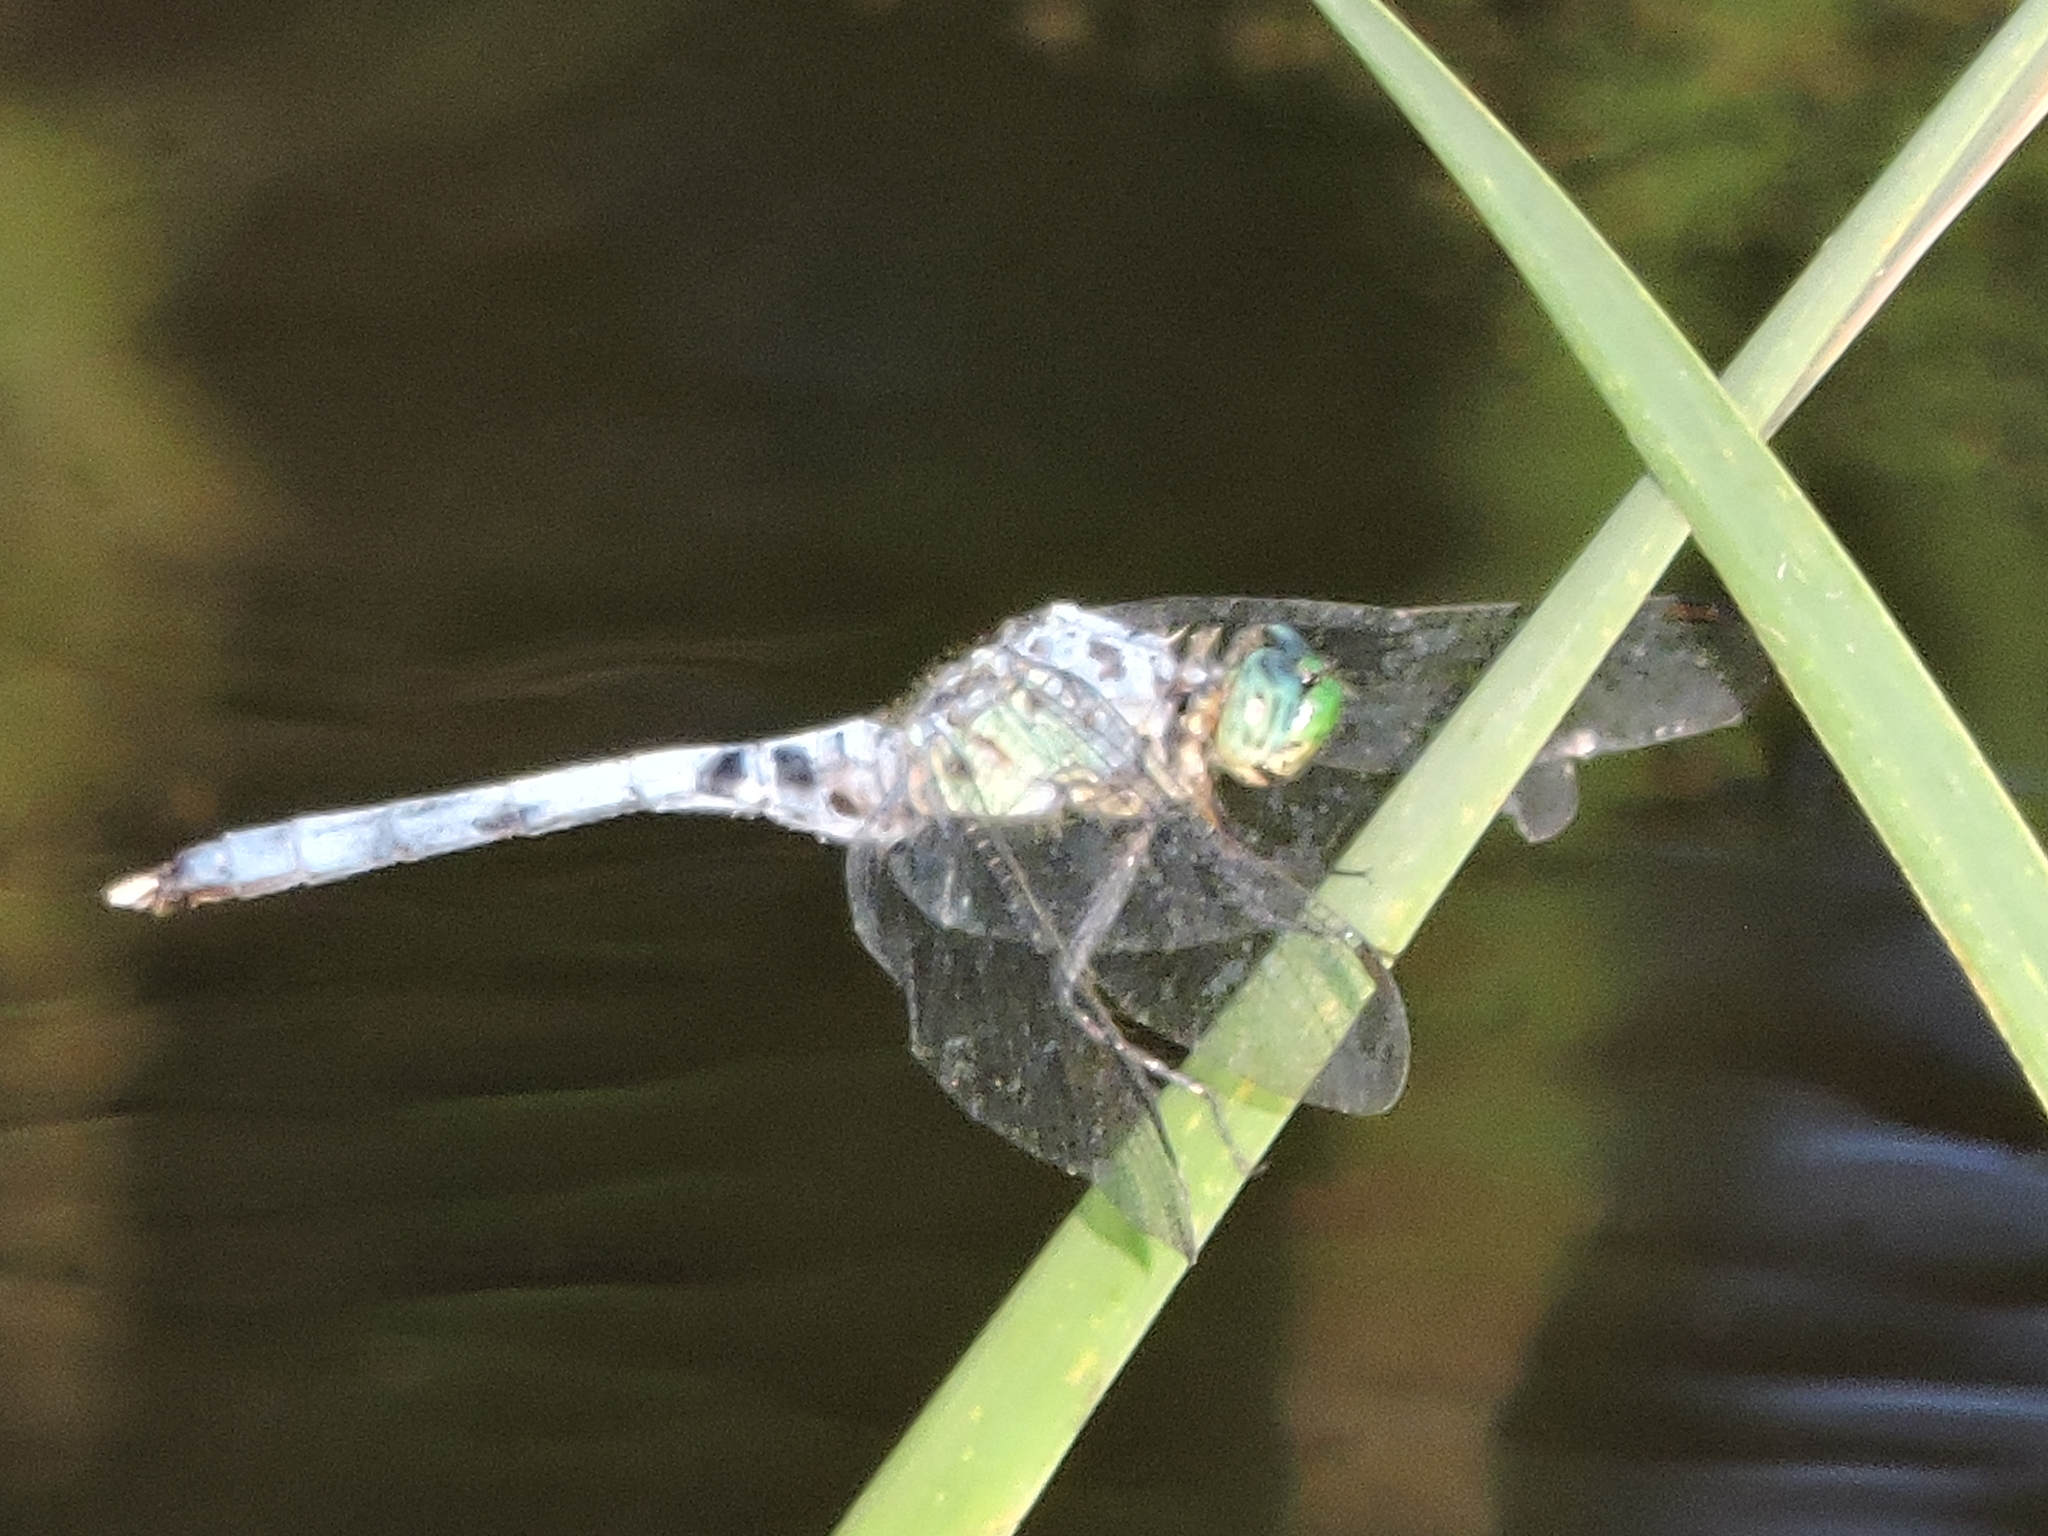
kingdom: Animalia
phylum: Arthropoda
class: Insecta
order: Odonata
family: Libellulidae
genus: Erythemis
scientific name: Erythemis simplicicollis
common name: Eastern pondhawk
